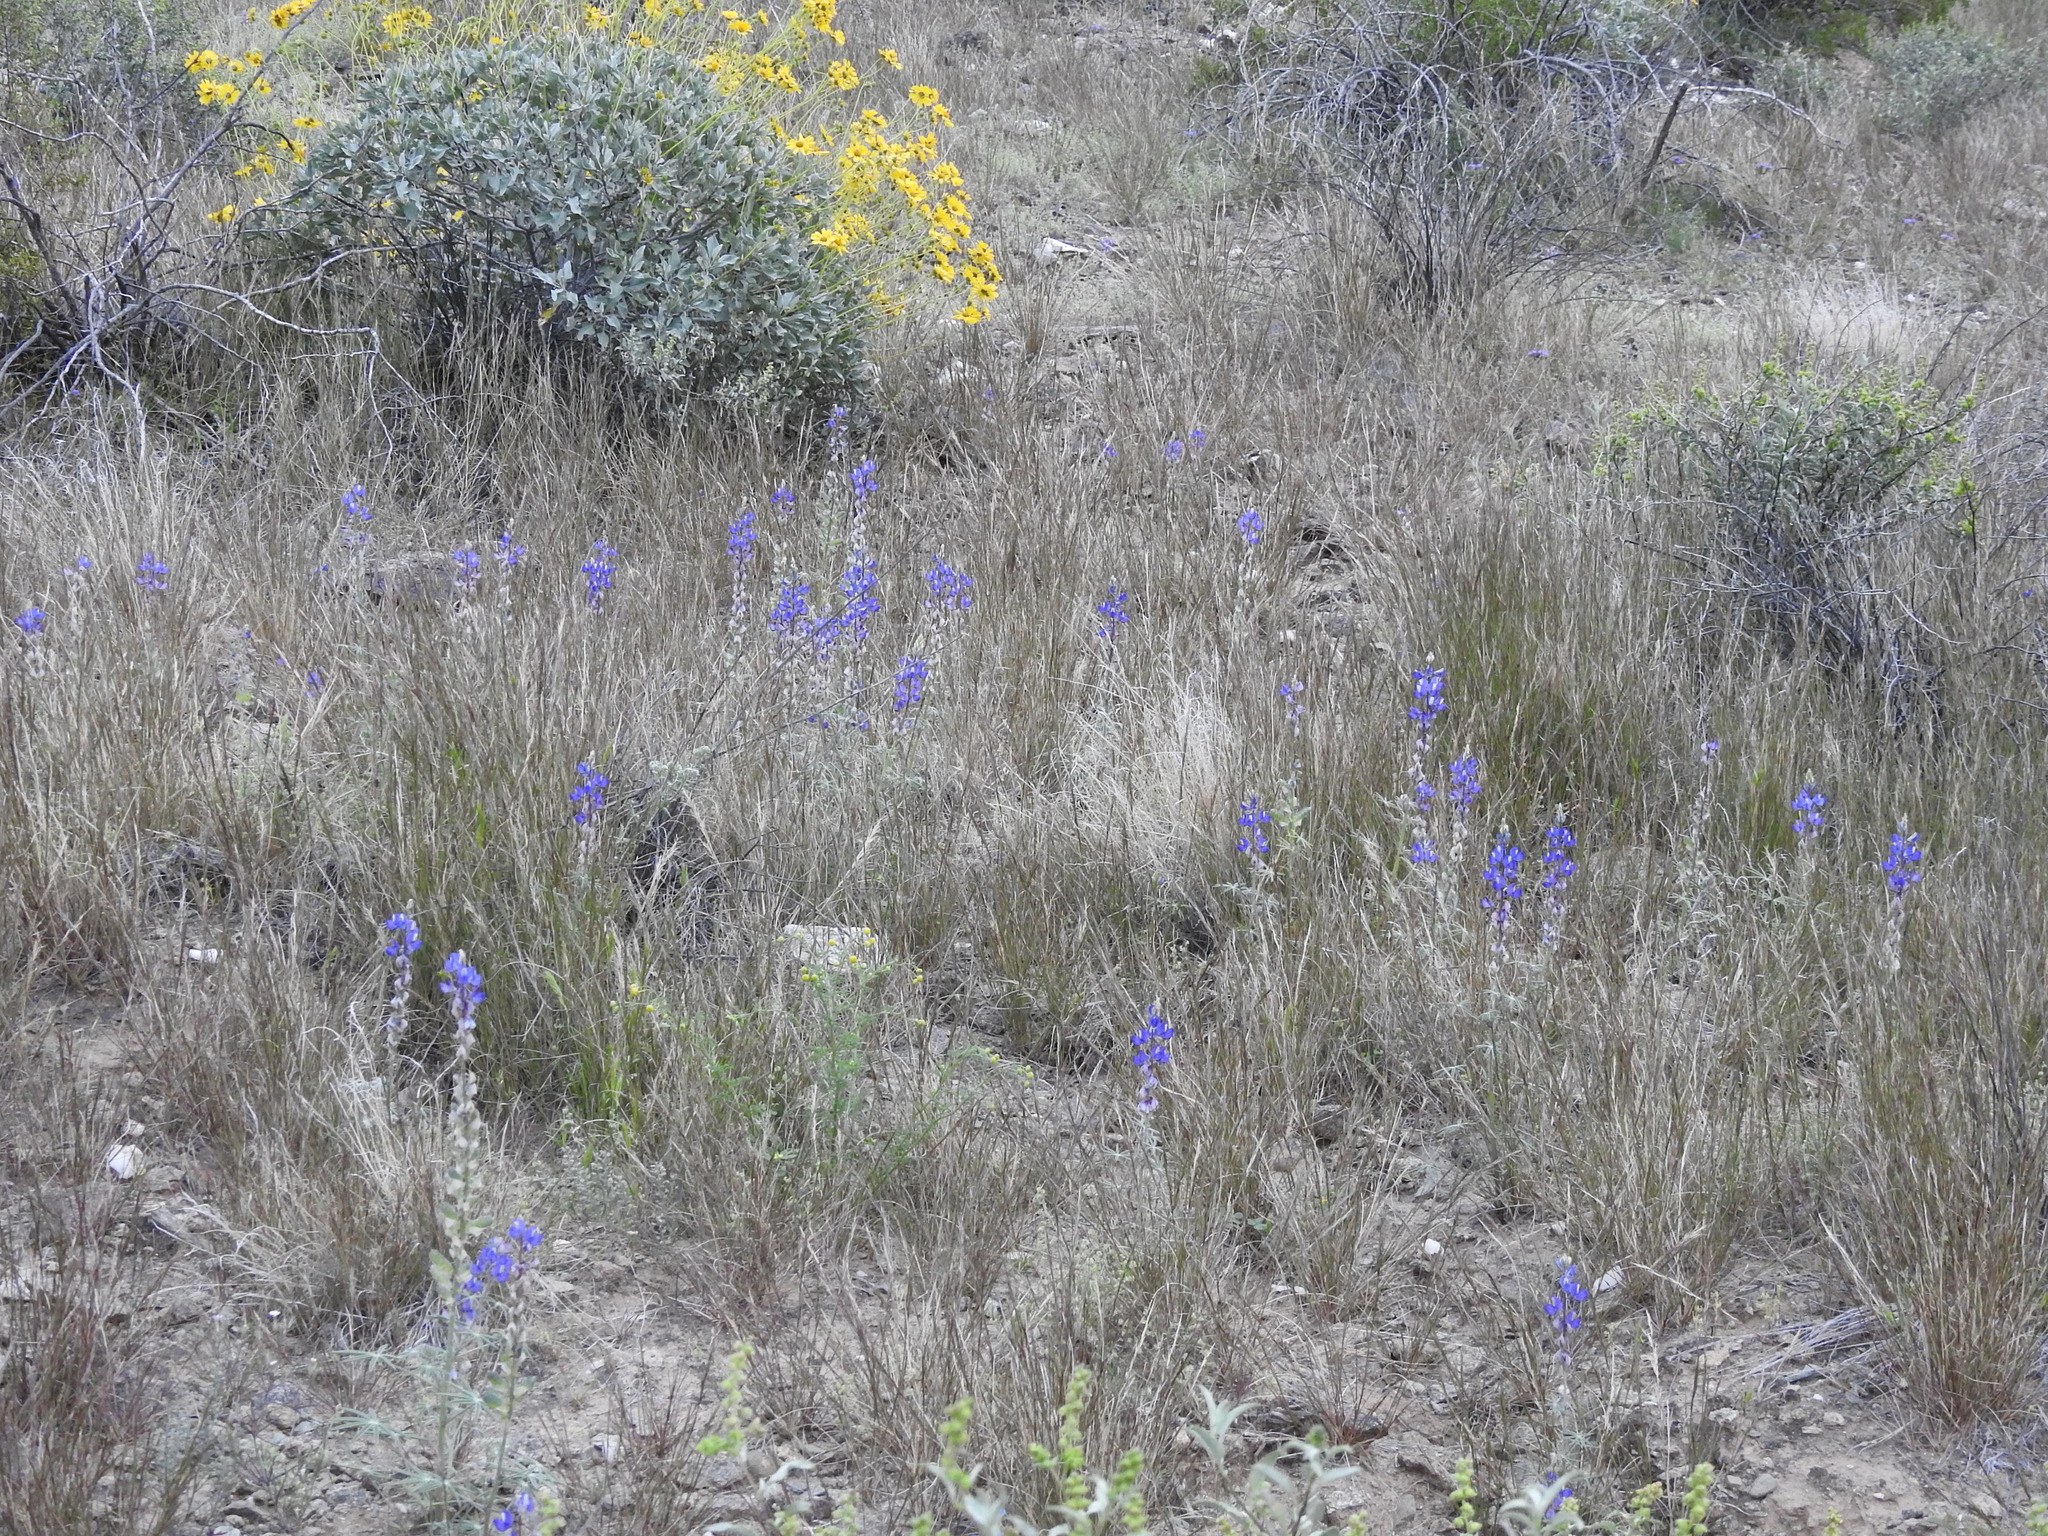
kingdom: Plantae
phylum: Tracheophyta
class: Magnoliopsida
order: Fabales
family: Fabaceae
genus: Lupinus
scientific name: Lupinus sparsiflorus
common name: Coulter's lupine
